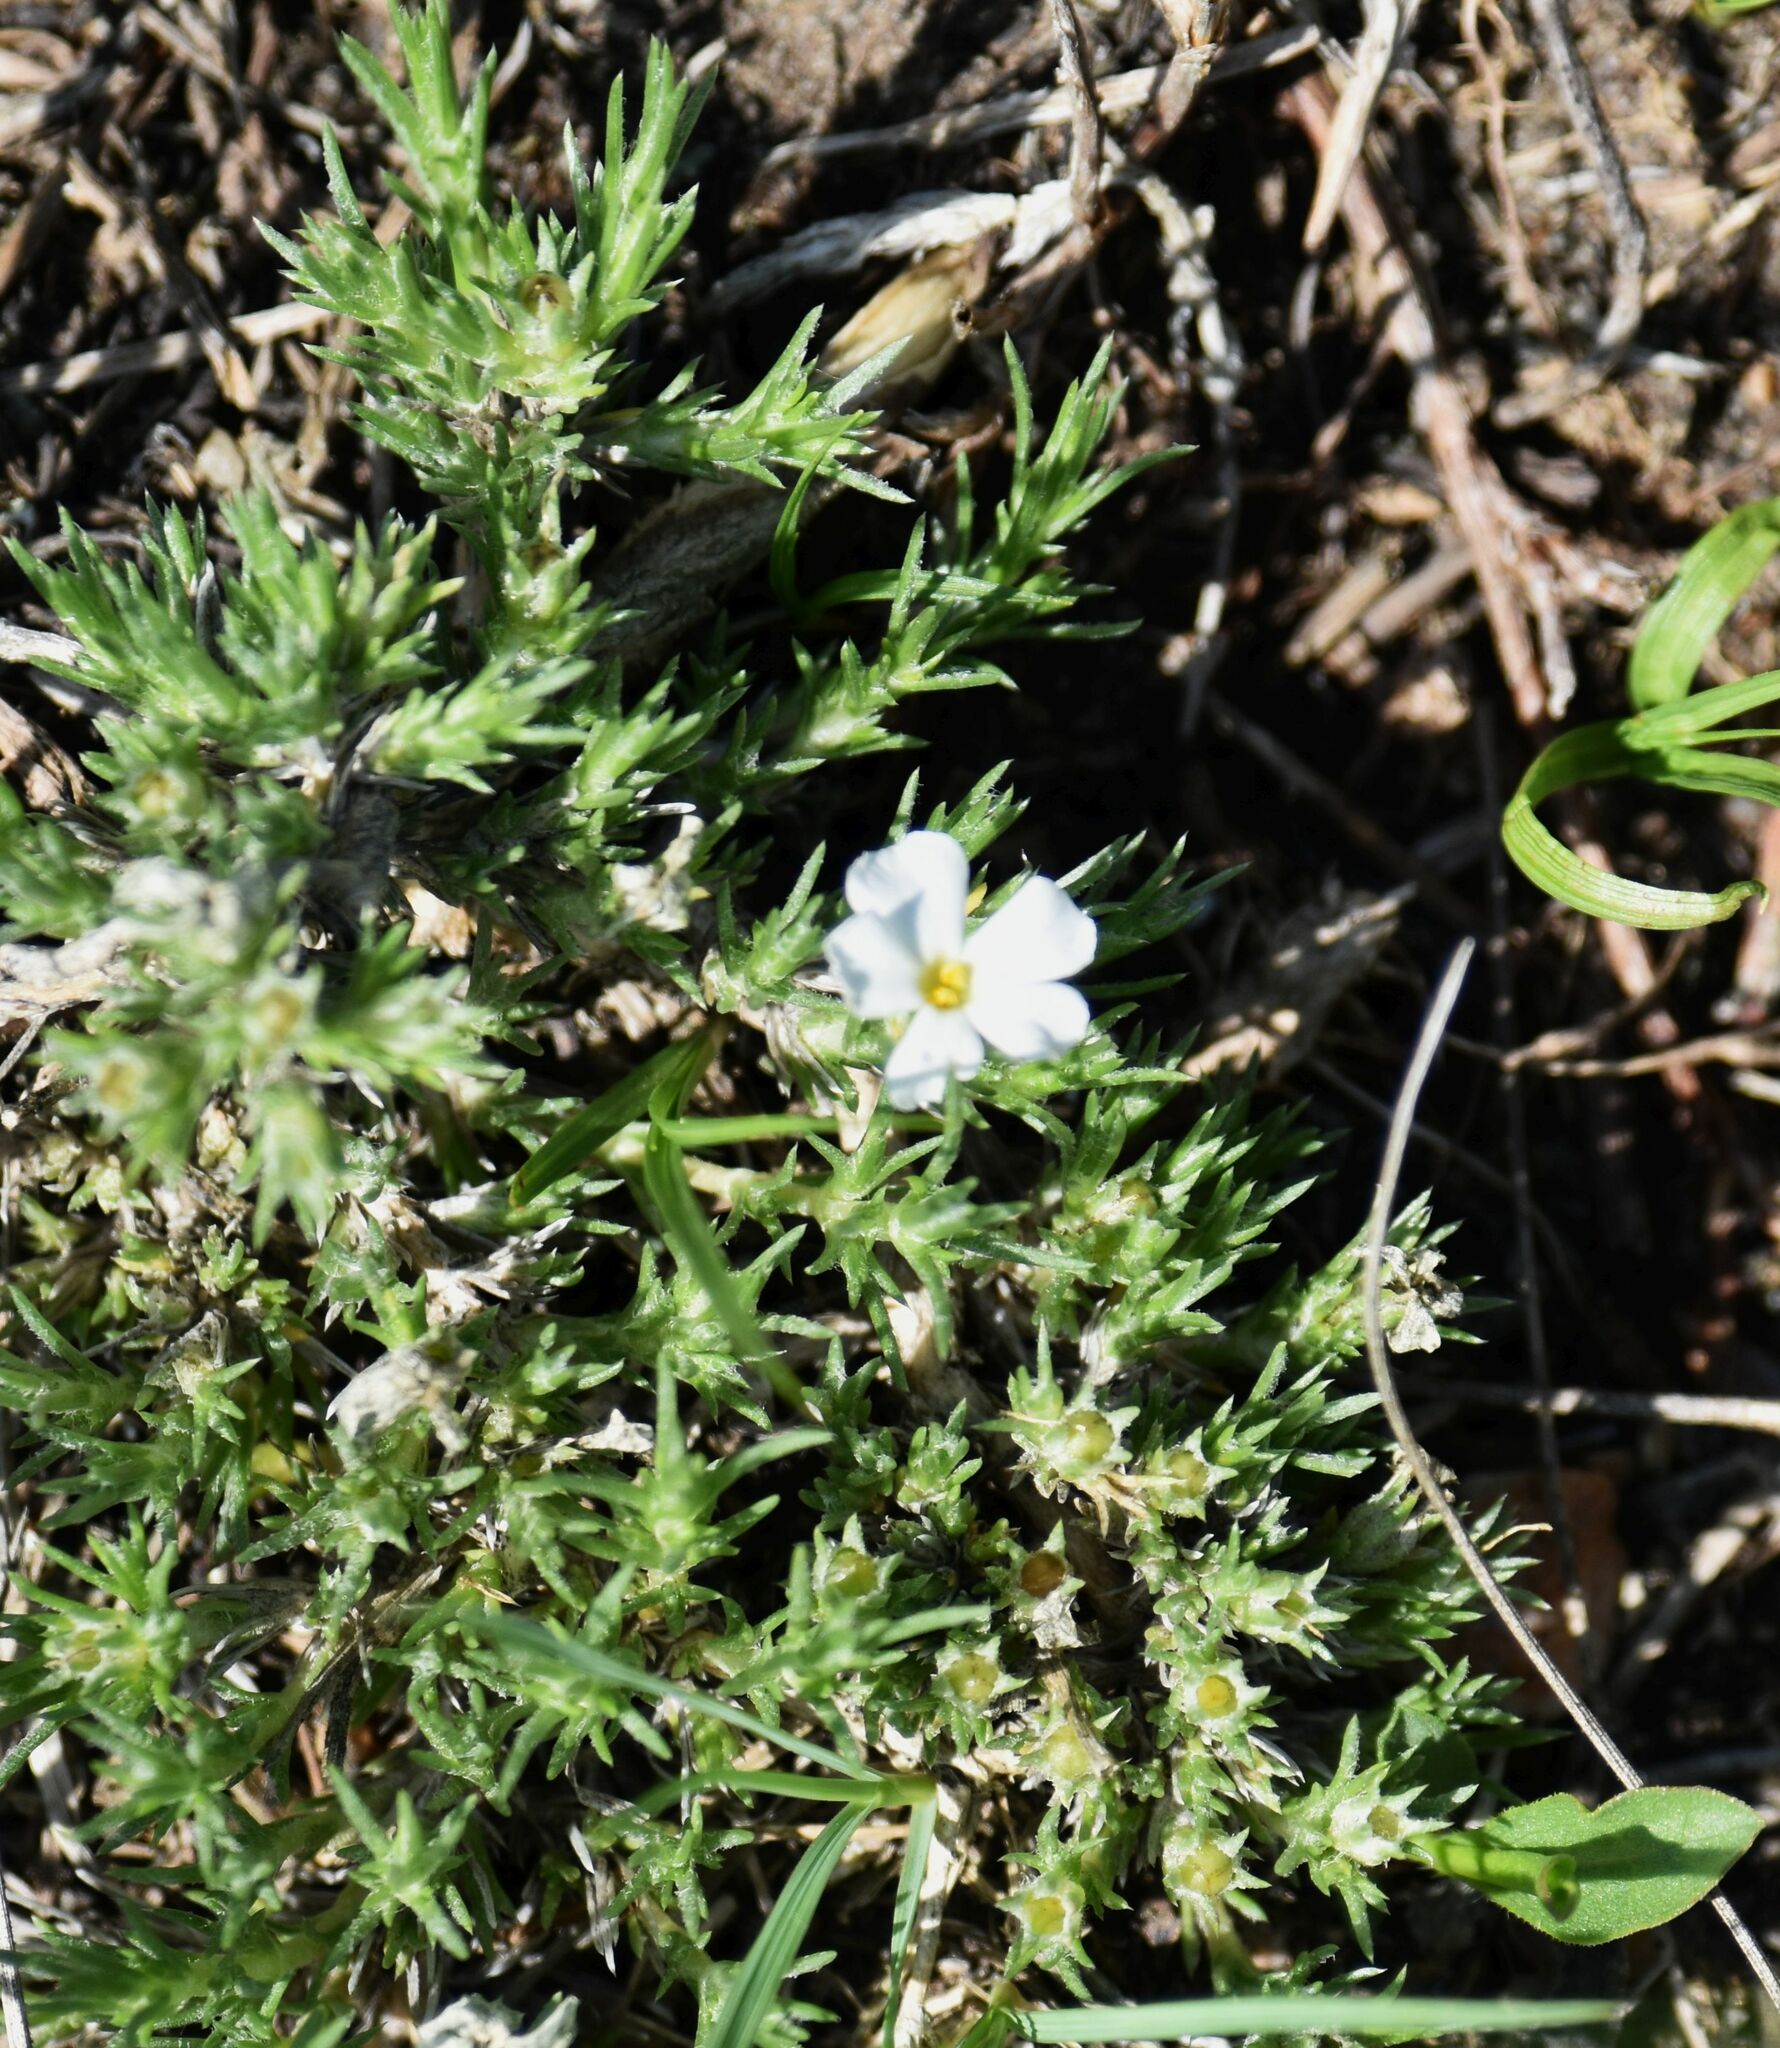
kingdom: Plantae
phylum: Tracheophyta
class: Magnoliopsida
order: Ericales
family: Polemoniaceae
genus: Phlox
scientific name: Phlox hoodii
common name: Moss phlox
